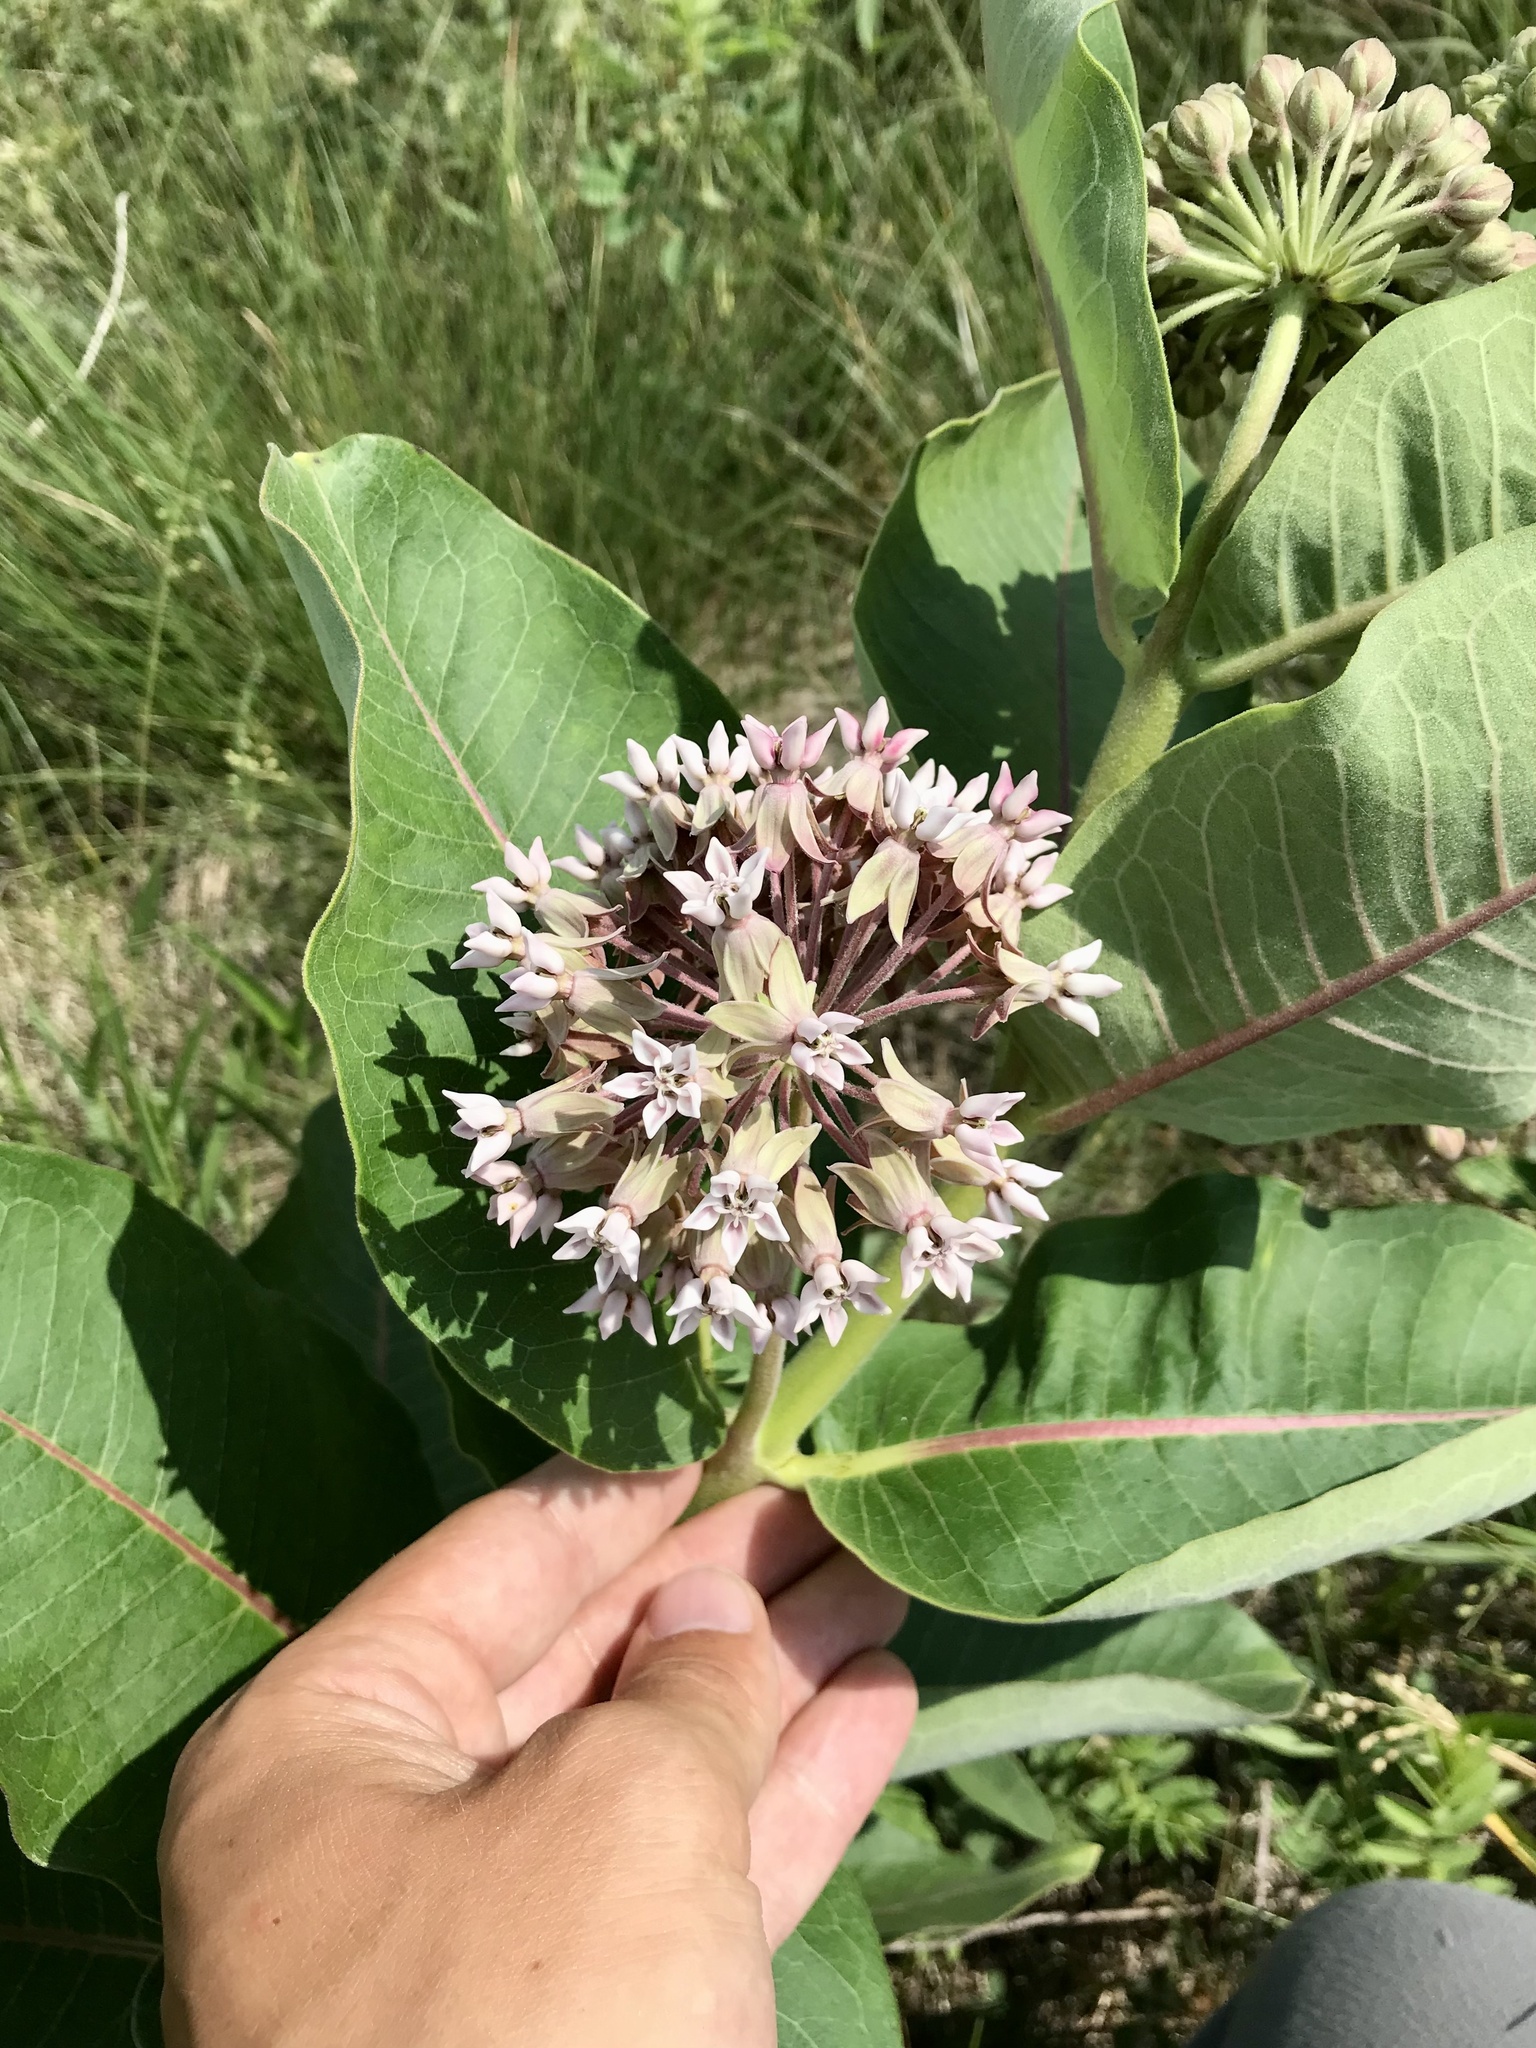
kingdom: Plantae
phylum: Tracheophyta
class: Magnoliopsida
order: Gentianales
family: Apocynaceae
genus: Asclepias
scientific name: Asclepias syriaca
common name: Common milkweed
